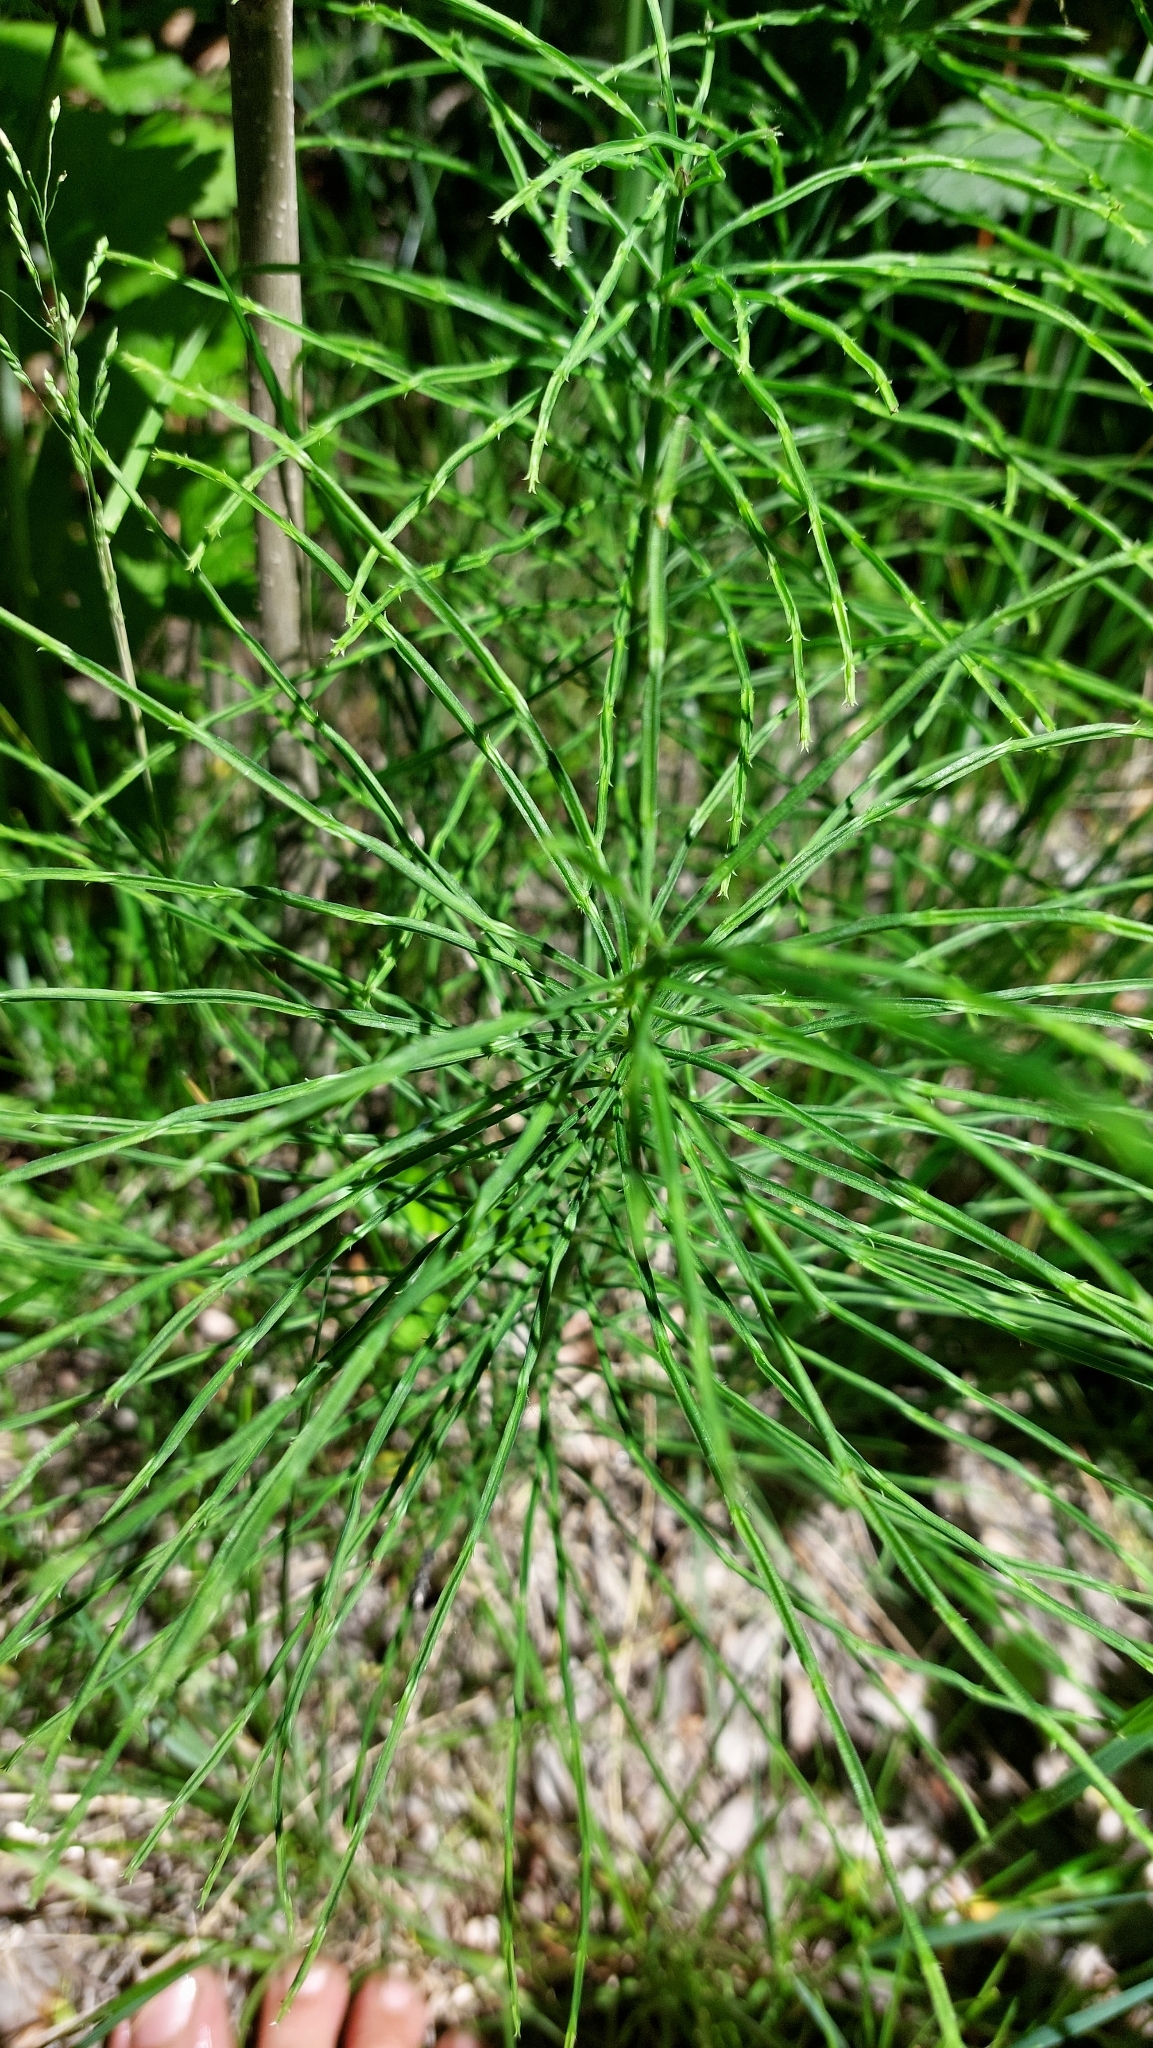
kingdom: Plantae
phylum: Tracheophyta
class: Polypodiopsida
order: Equisetales
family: Equisetaceae
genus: Equisetum
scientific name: Equisetum arvense
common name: Field horsetail
